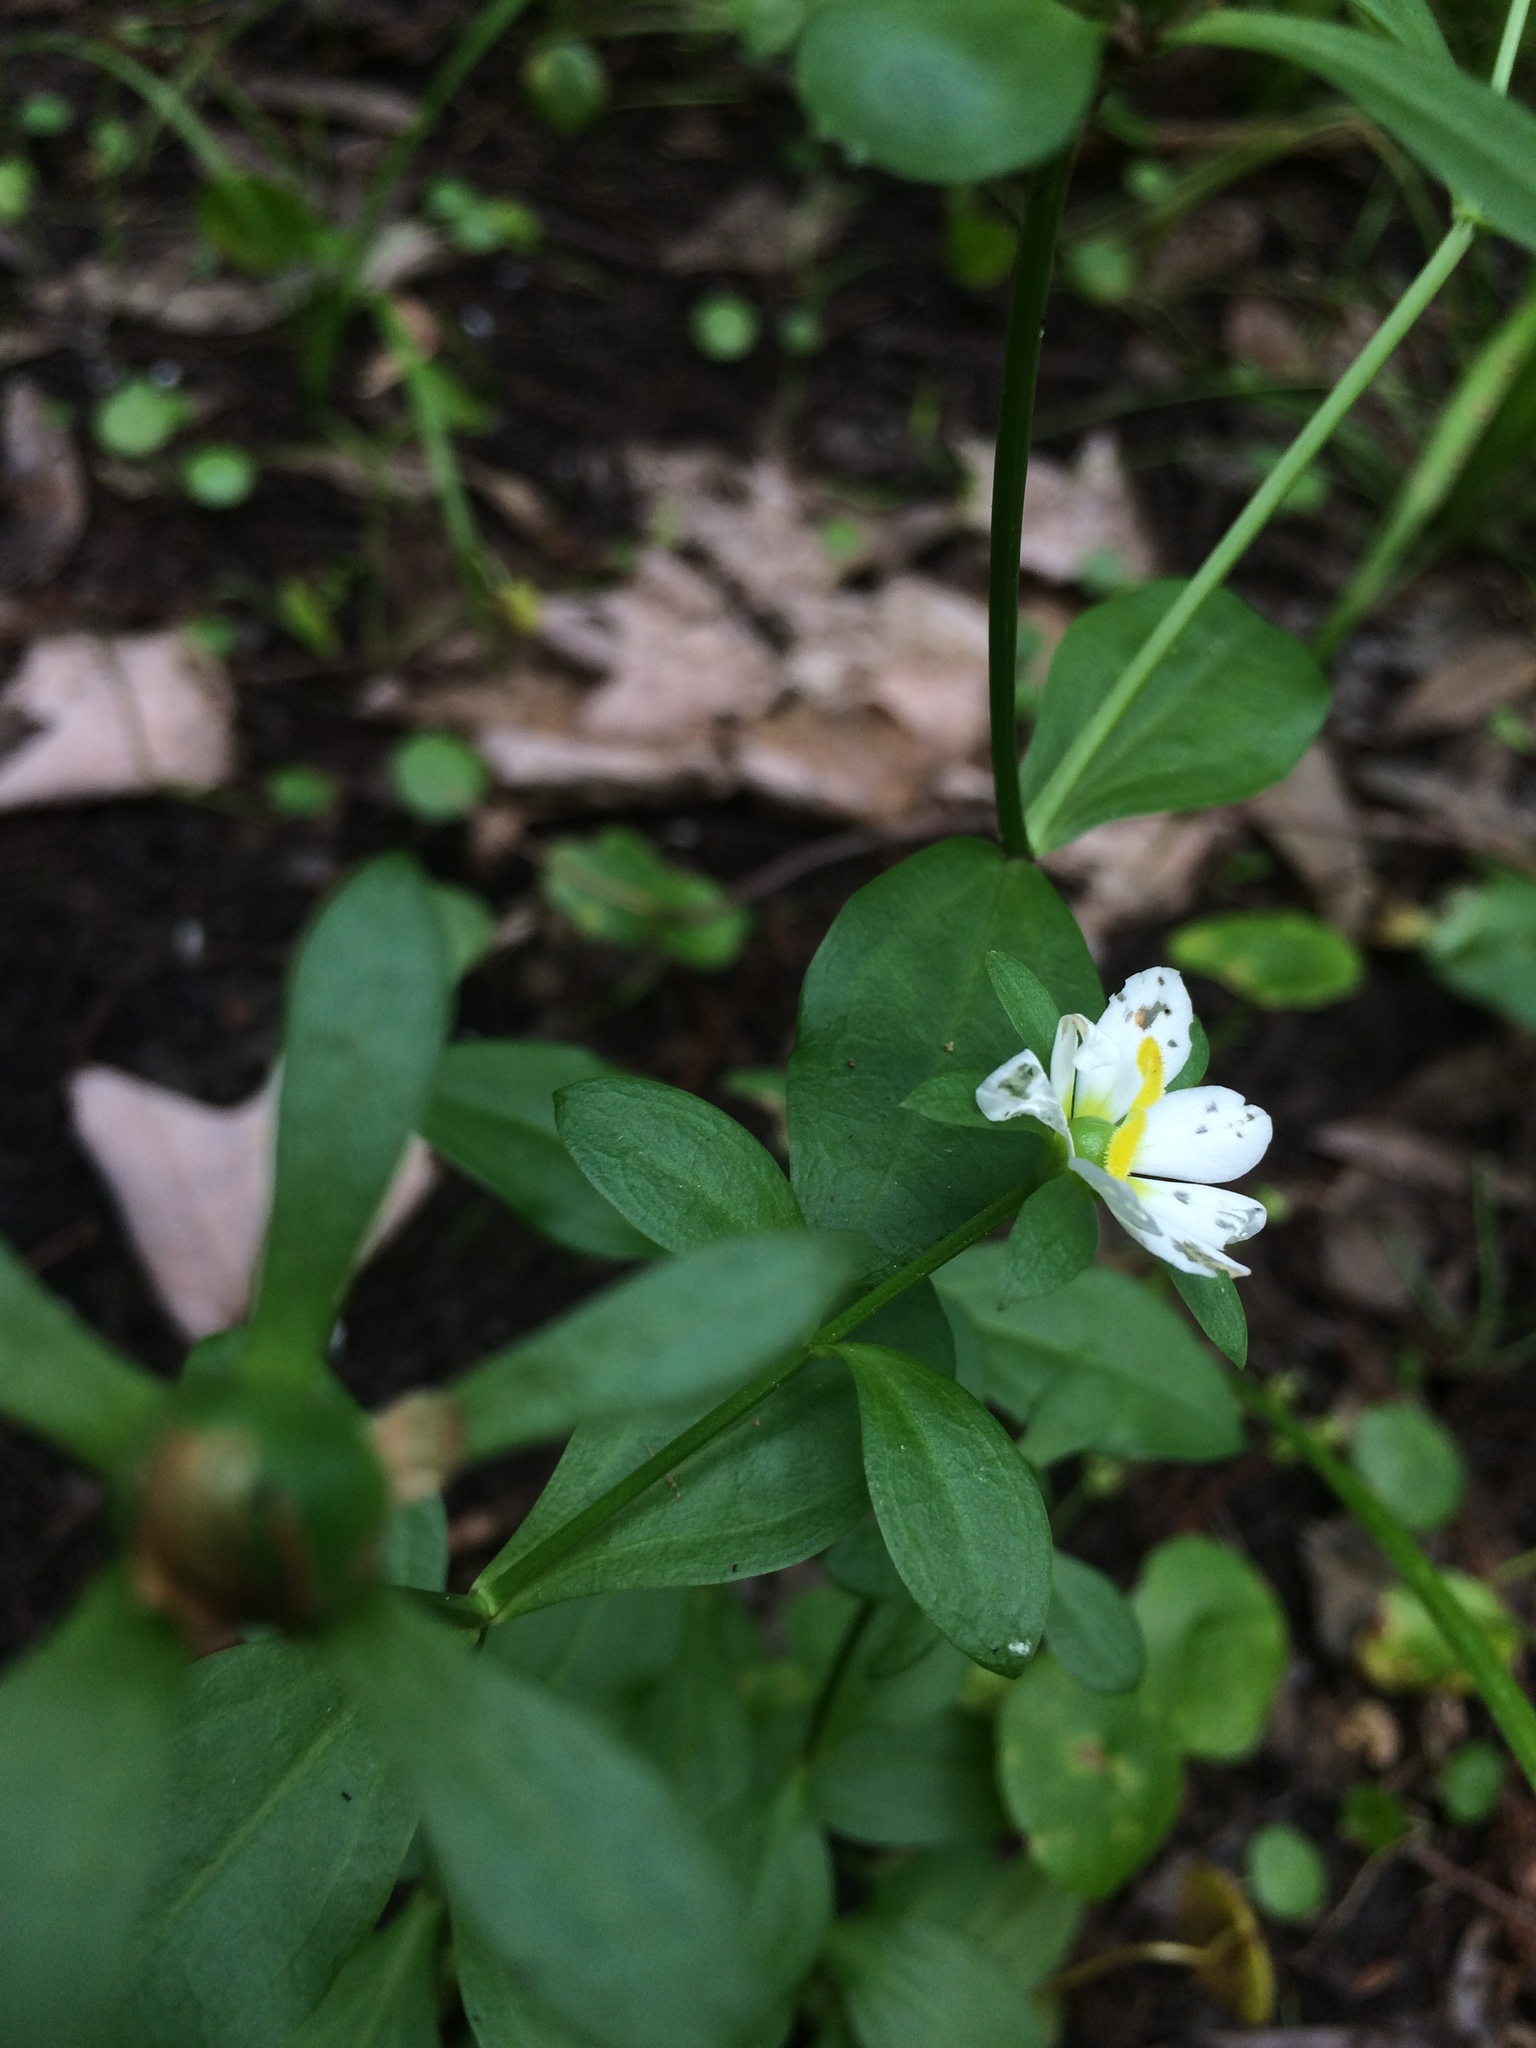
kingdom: Plantae
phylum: Tracheophyta
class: Magnoliopsida
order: Gentianales
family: Gentianaceae
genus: Sabatia
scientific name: Sabatia calycina
